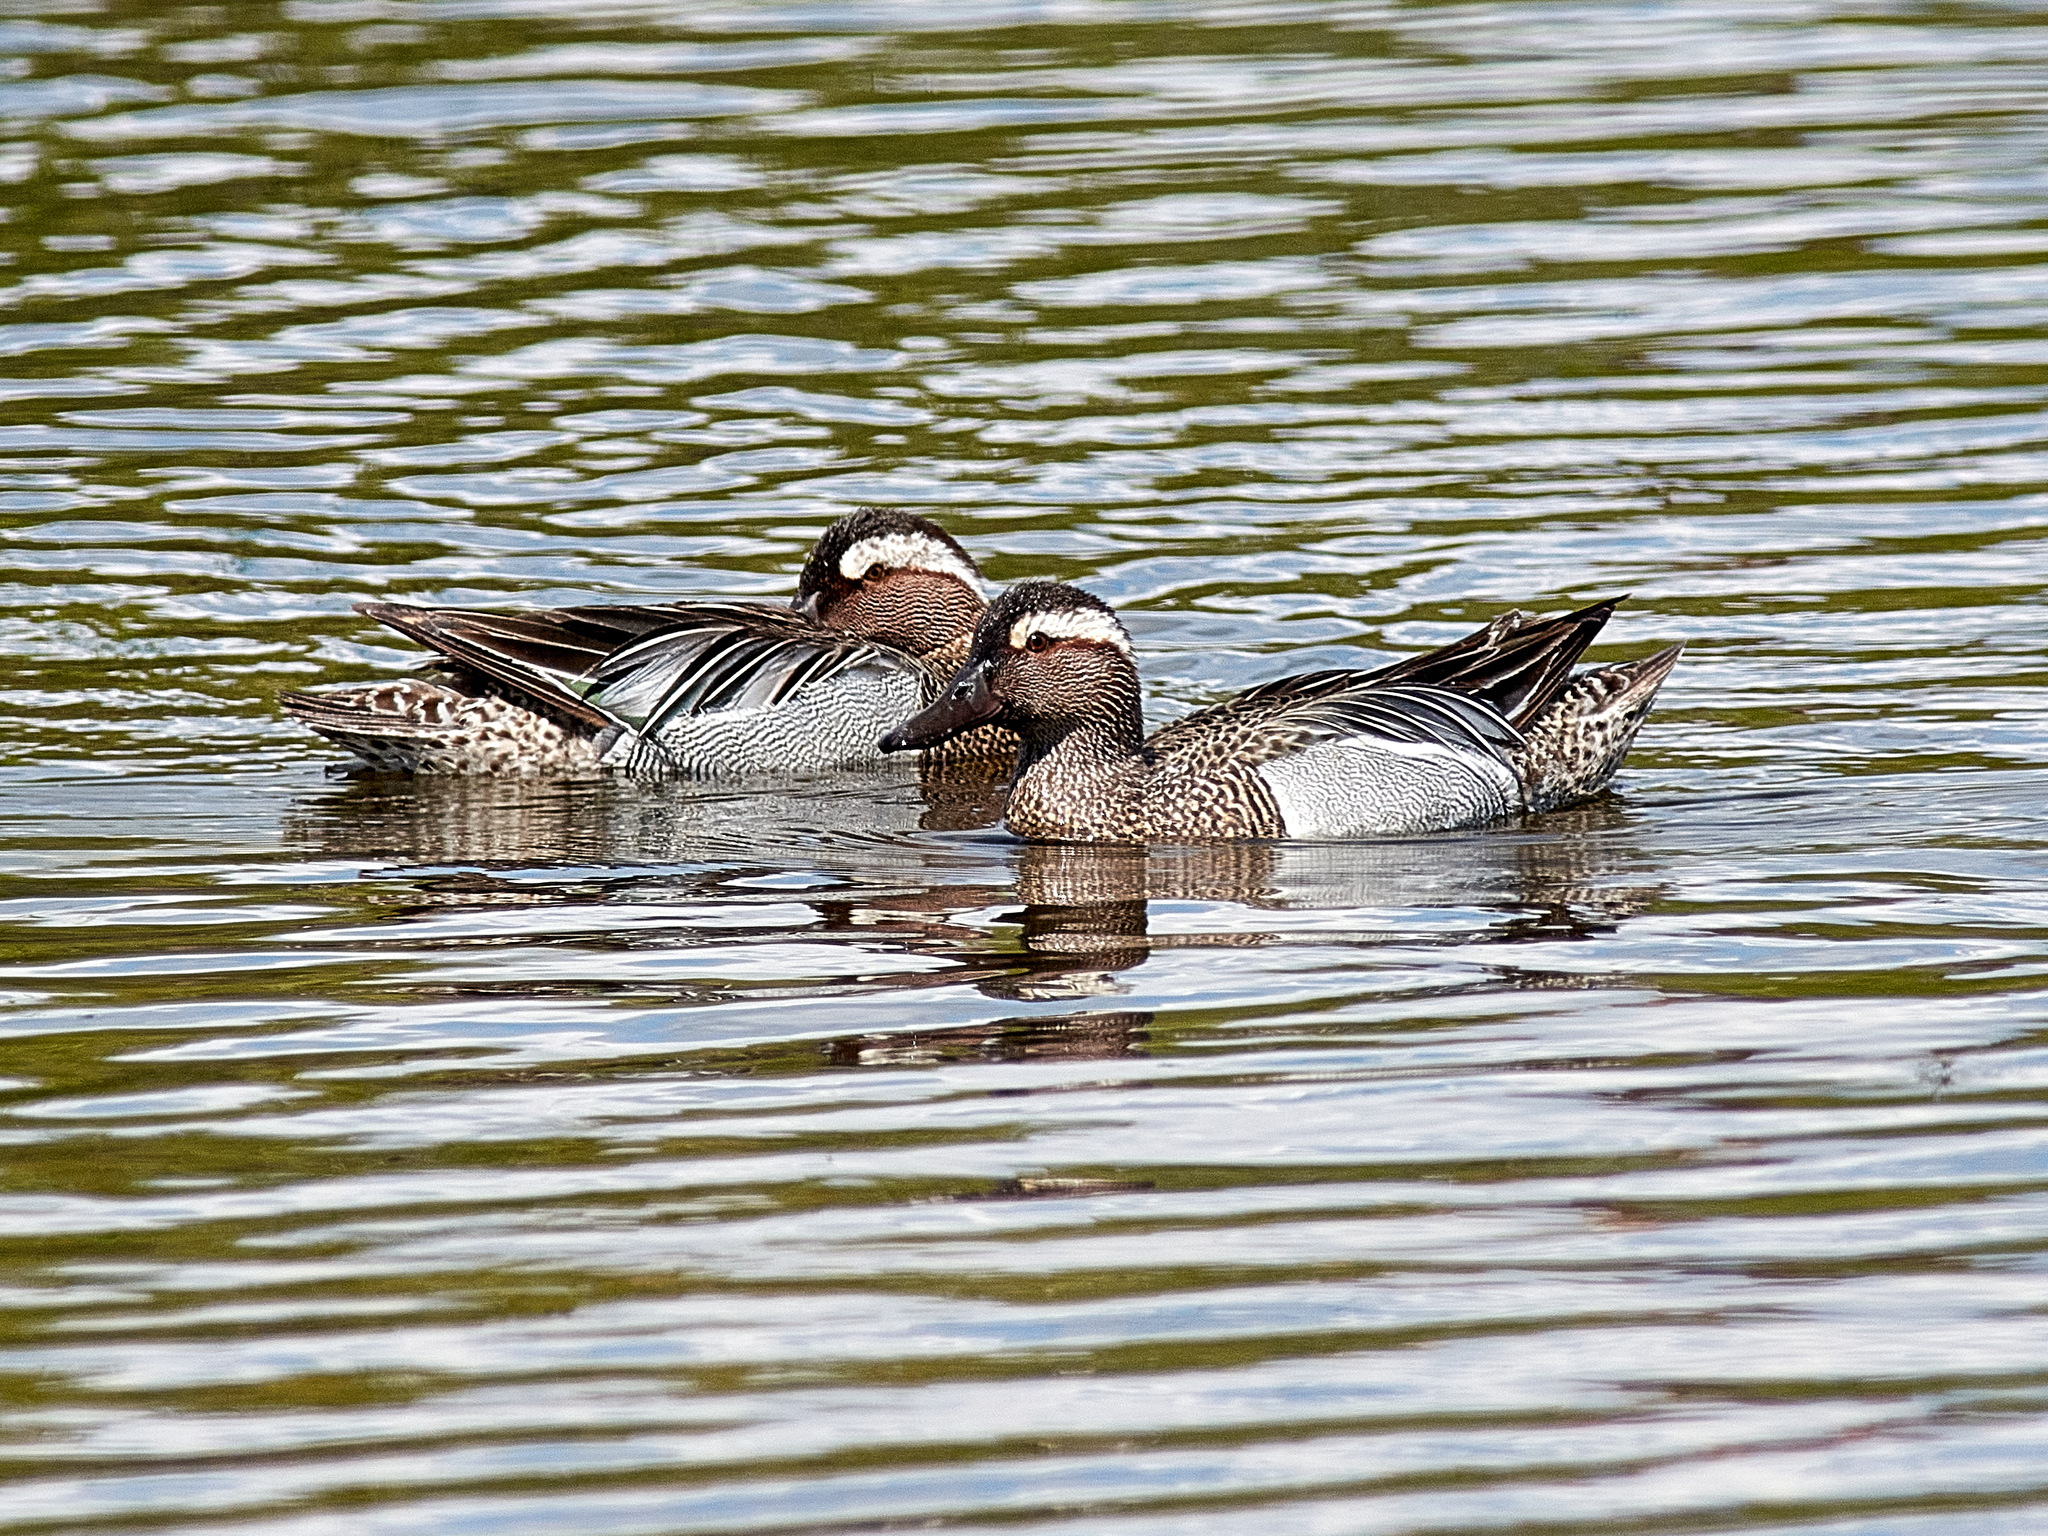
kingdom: Animalia
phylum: Chordata
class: Aves
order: Anseriformes
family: Anatidae
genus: Spatula
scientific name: Spatula querquedula
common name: Garganey
